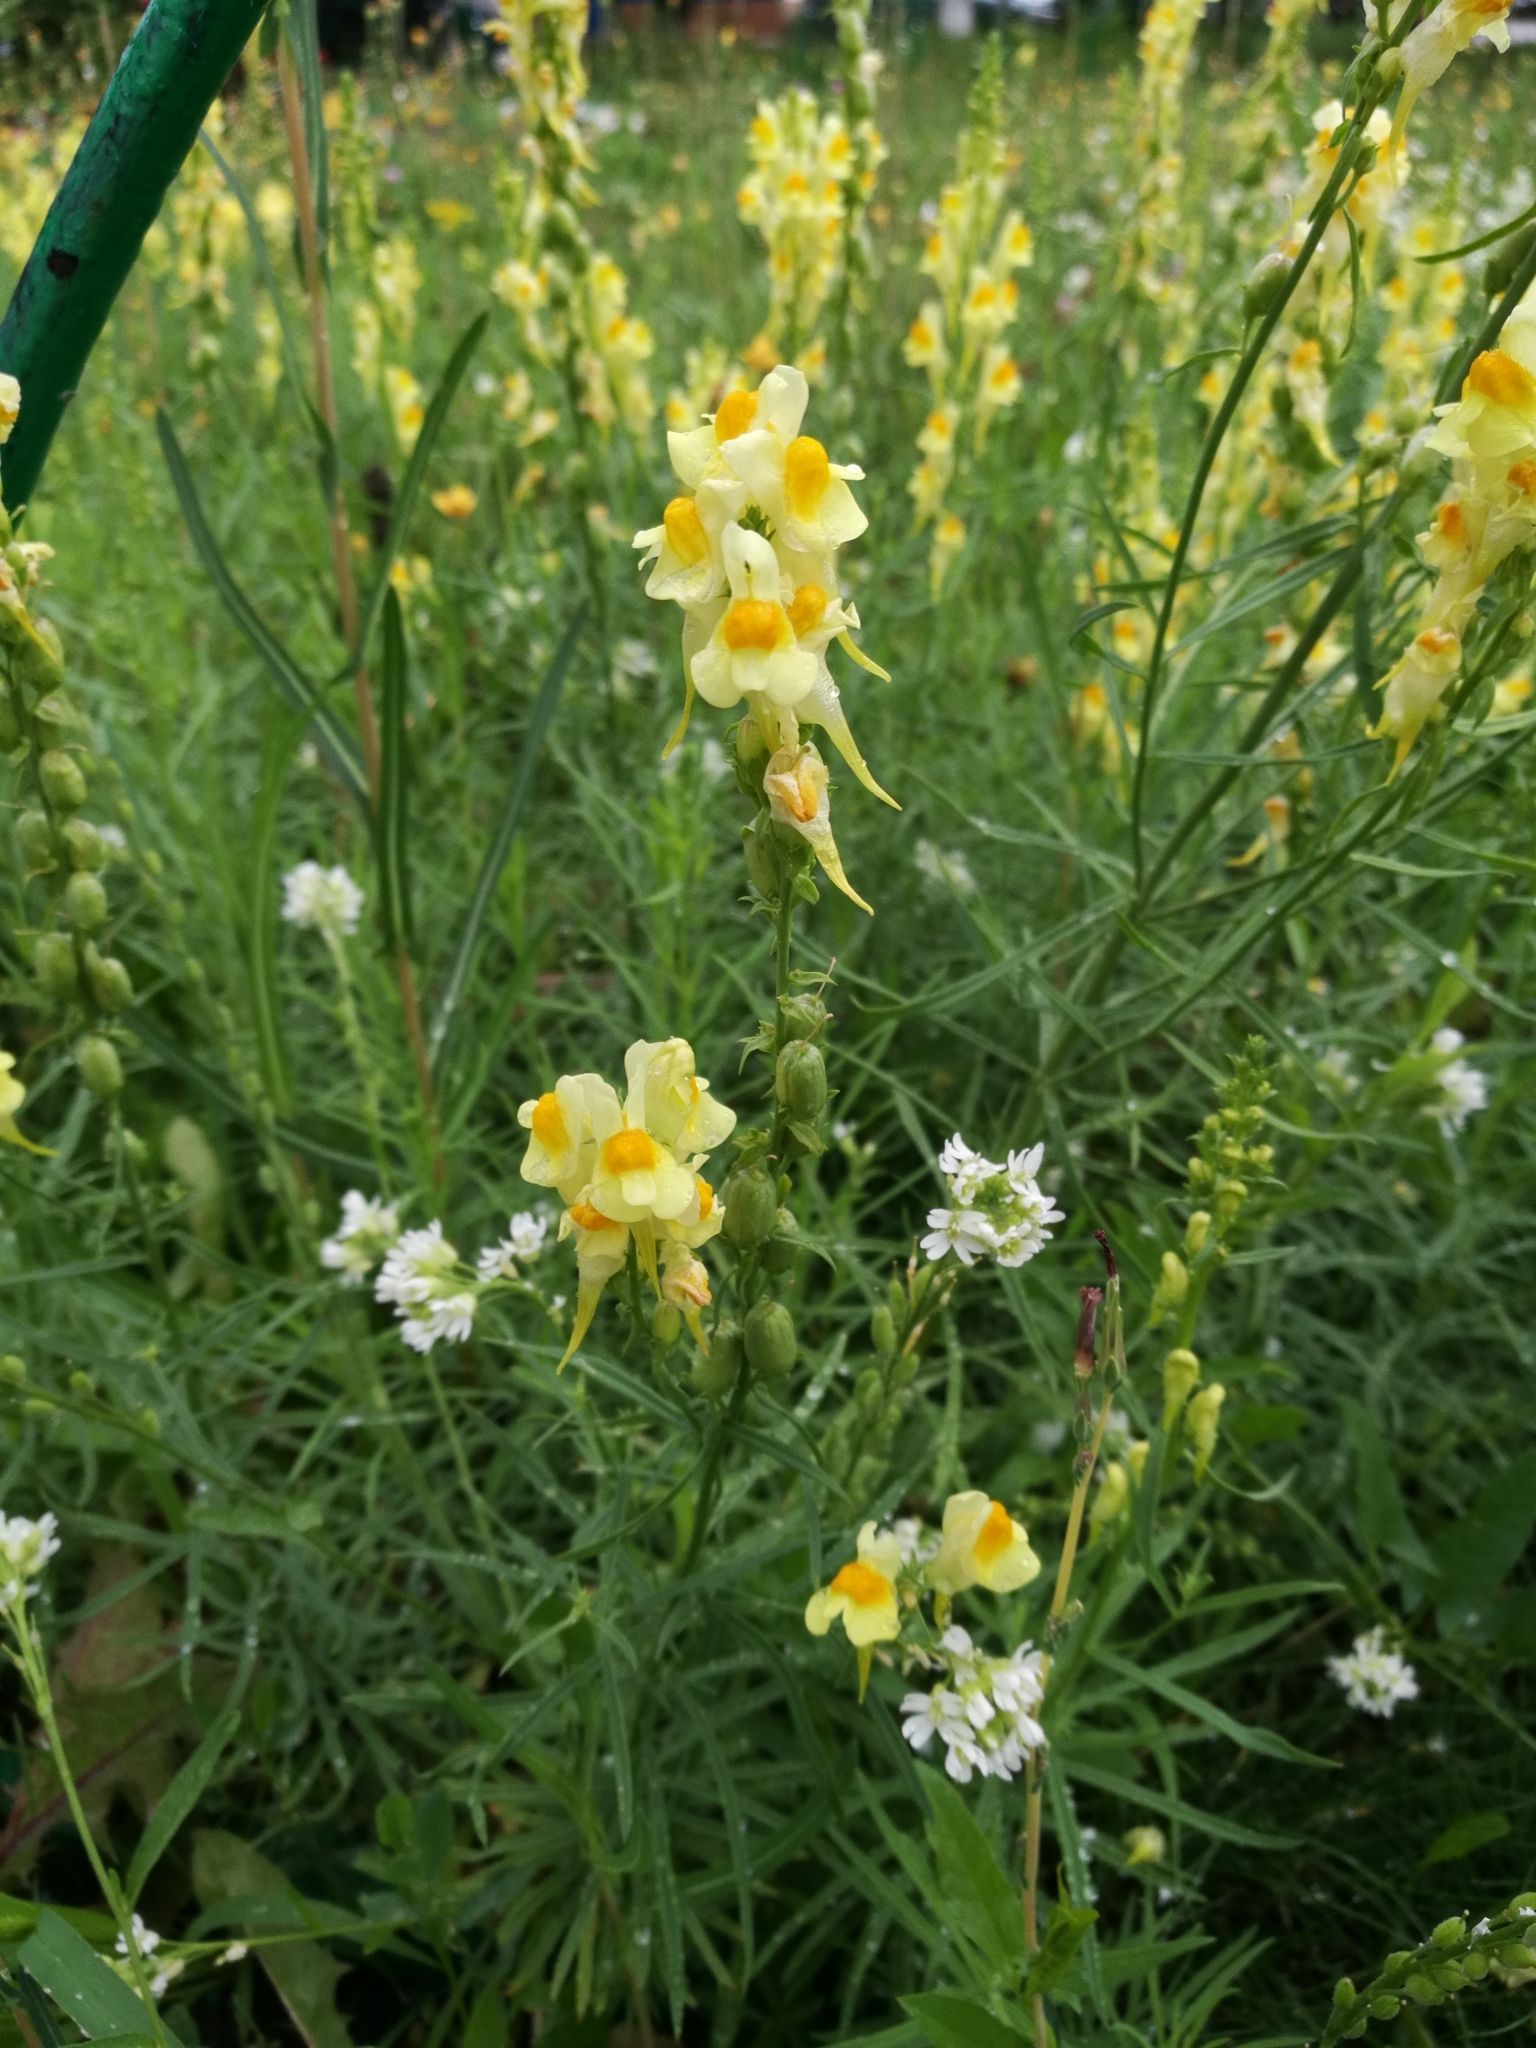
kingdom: Plantae
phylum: Tracheophyta
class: Magnoliopsida
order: Lamiales
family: Plantaginaceae
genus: Linaria
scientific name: Linaria vulgaris
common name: Butter and eggs
